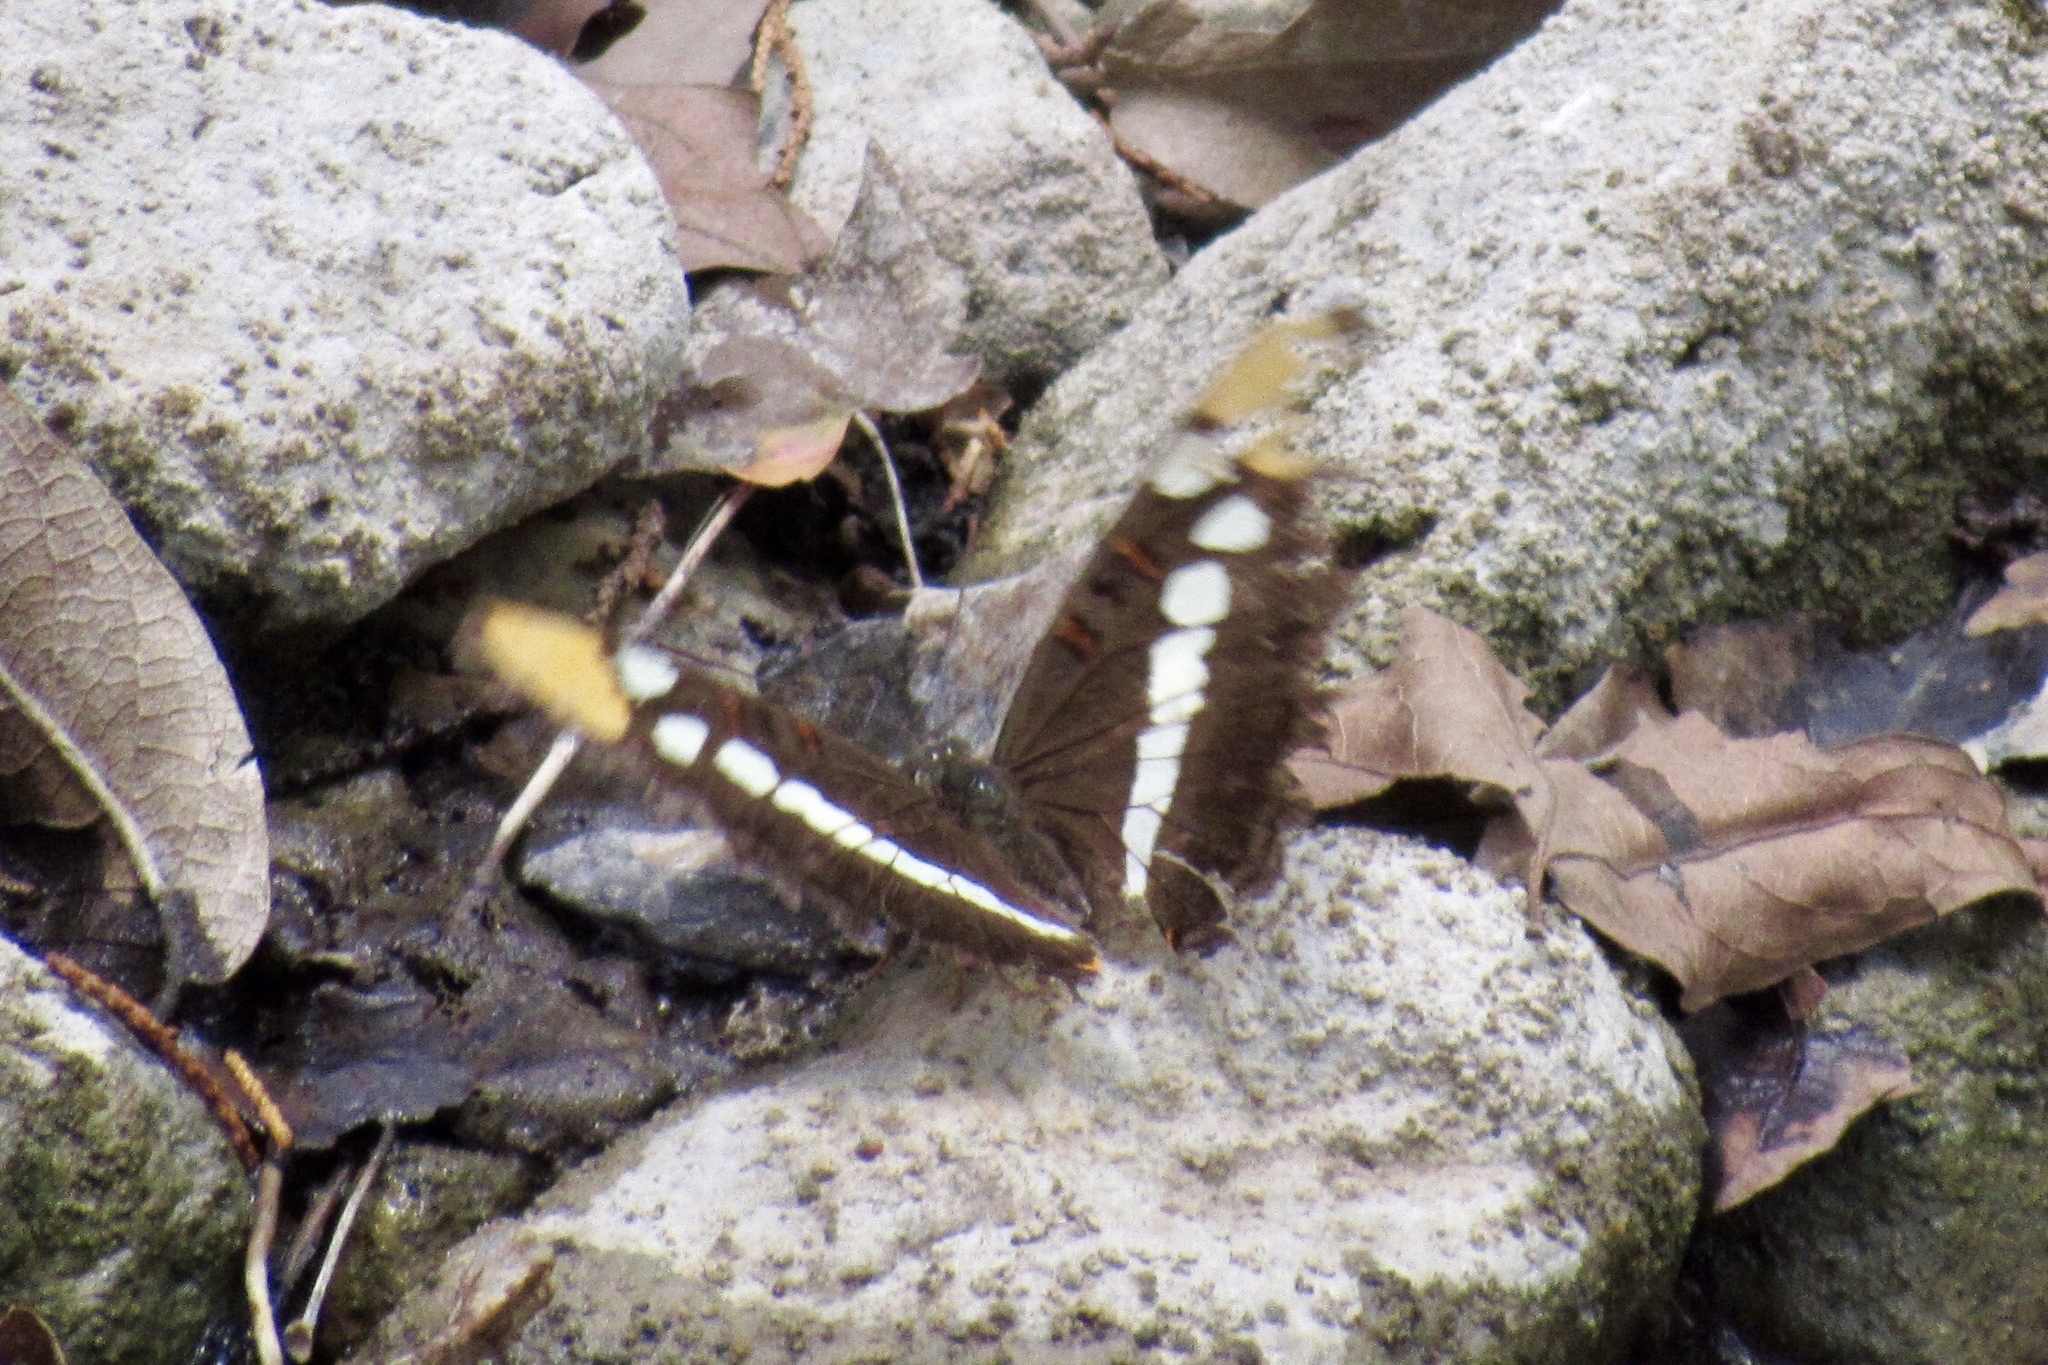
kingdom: Animalia
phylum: Arthropoda
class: Insecta
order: Lepidoptera
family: Nymphalidae
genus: Limenitis
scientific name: Limenitis bredowii
